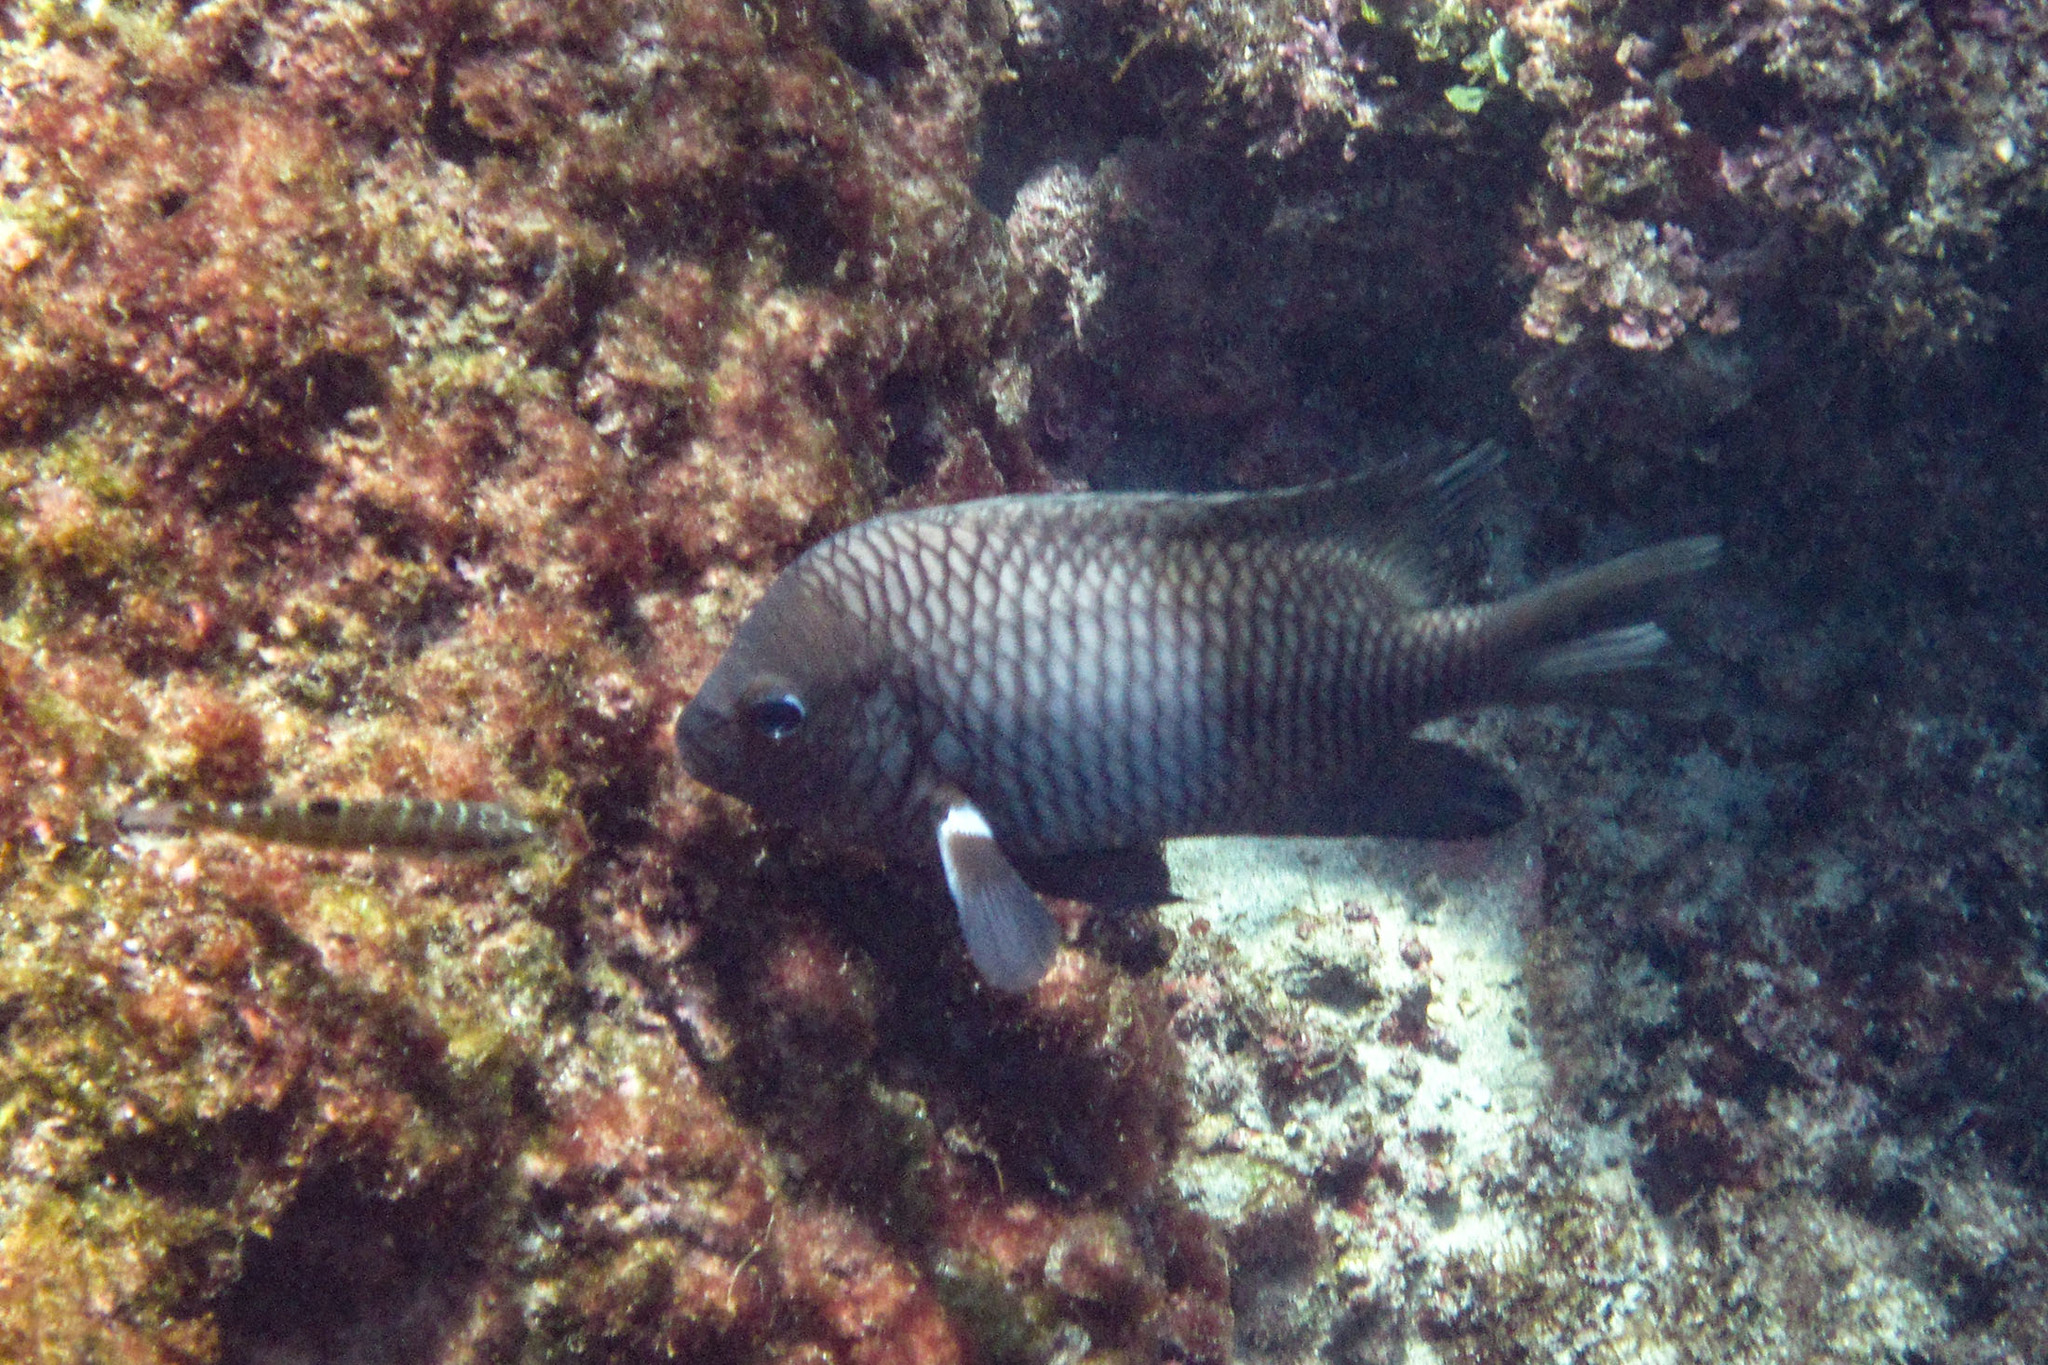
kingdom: Animalia
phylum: Chordata
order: Perciformes
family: Pomacentridae
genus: Stegastes
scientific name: Stegastes acapulcoensis
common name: Acapulco damselfish
